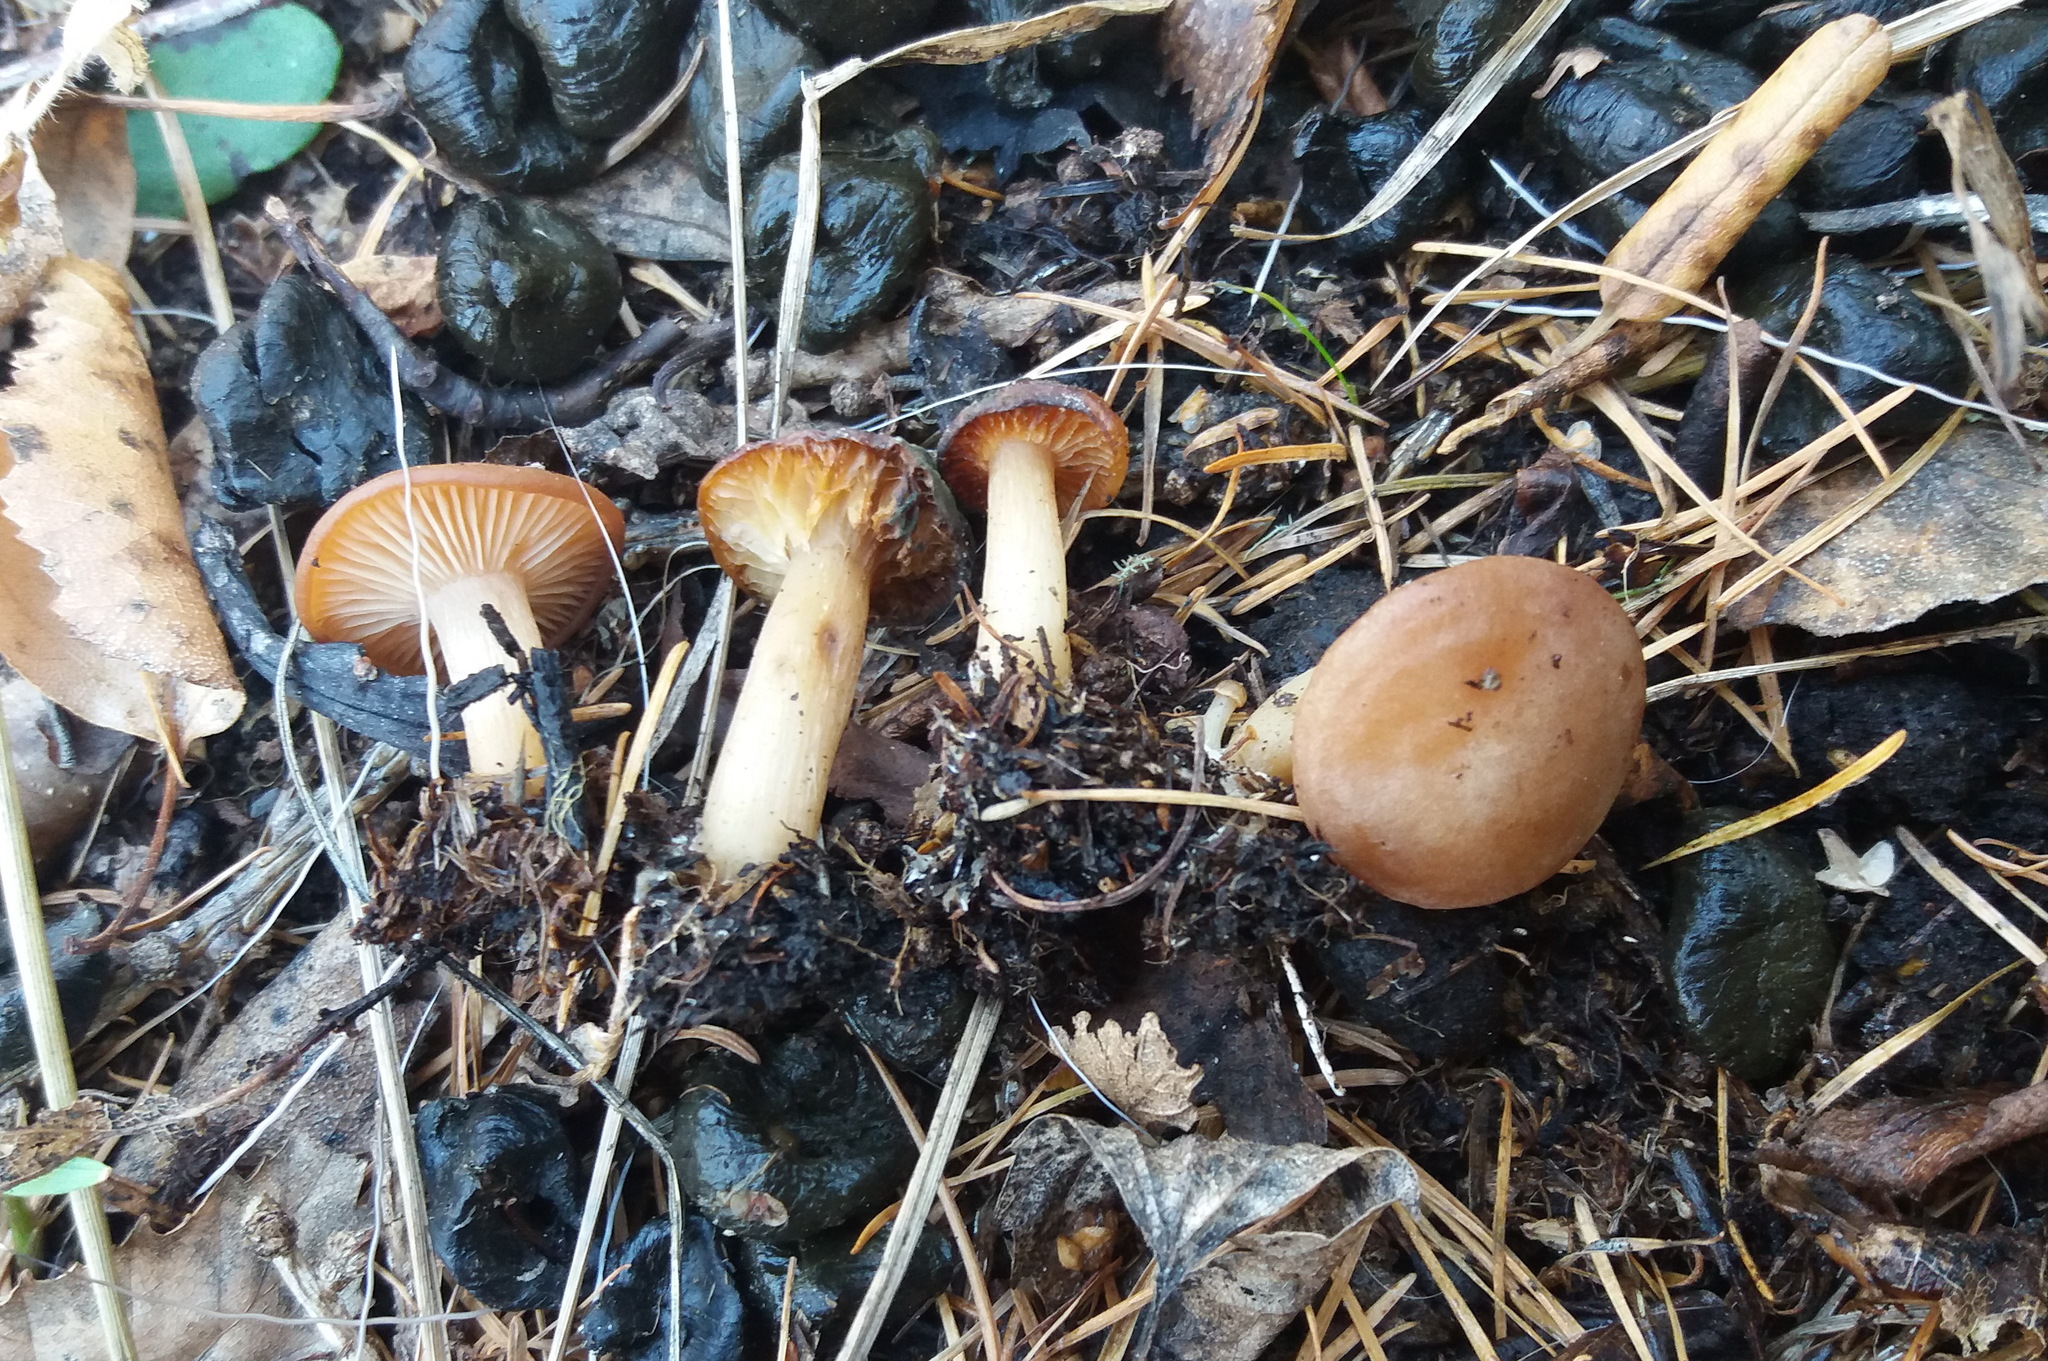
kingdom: Fungi
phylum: Basidiomycota
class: Agaricomycetes
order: Agaricales
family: Omphalotaceae
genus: Gymnopus
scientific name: Gymnopus vernus
